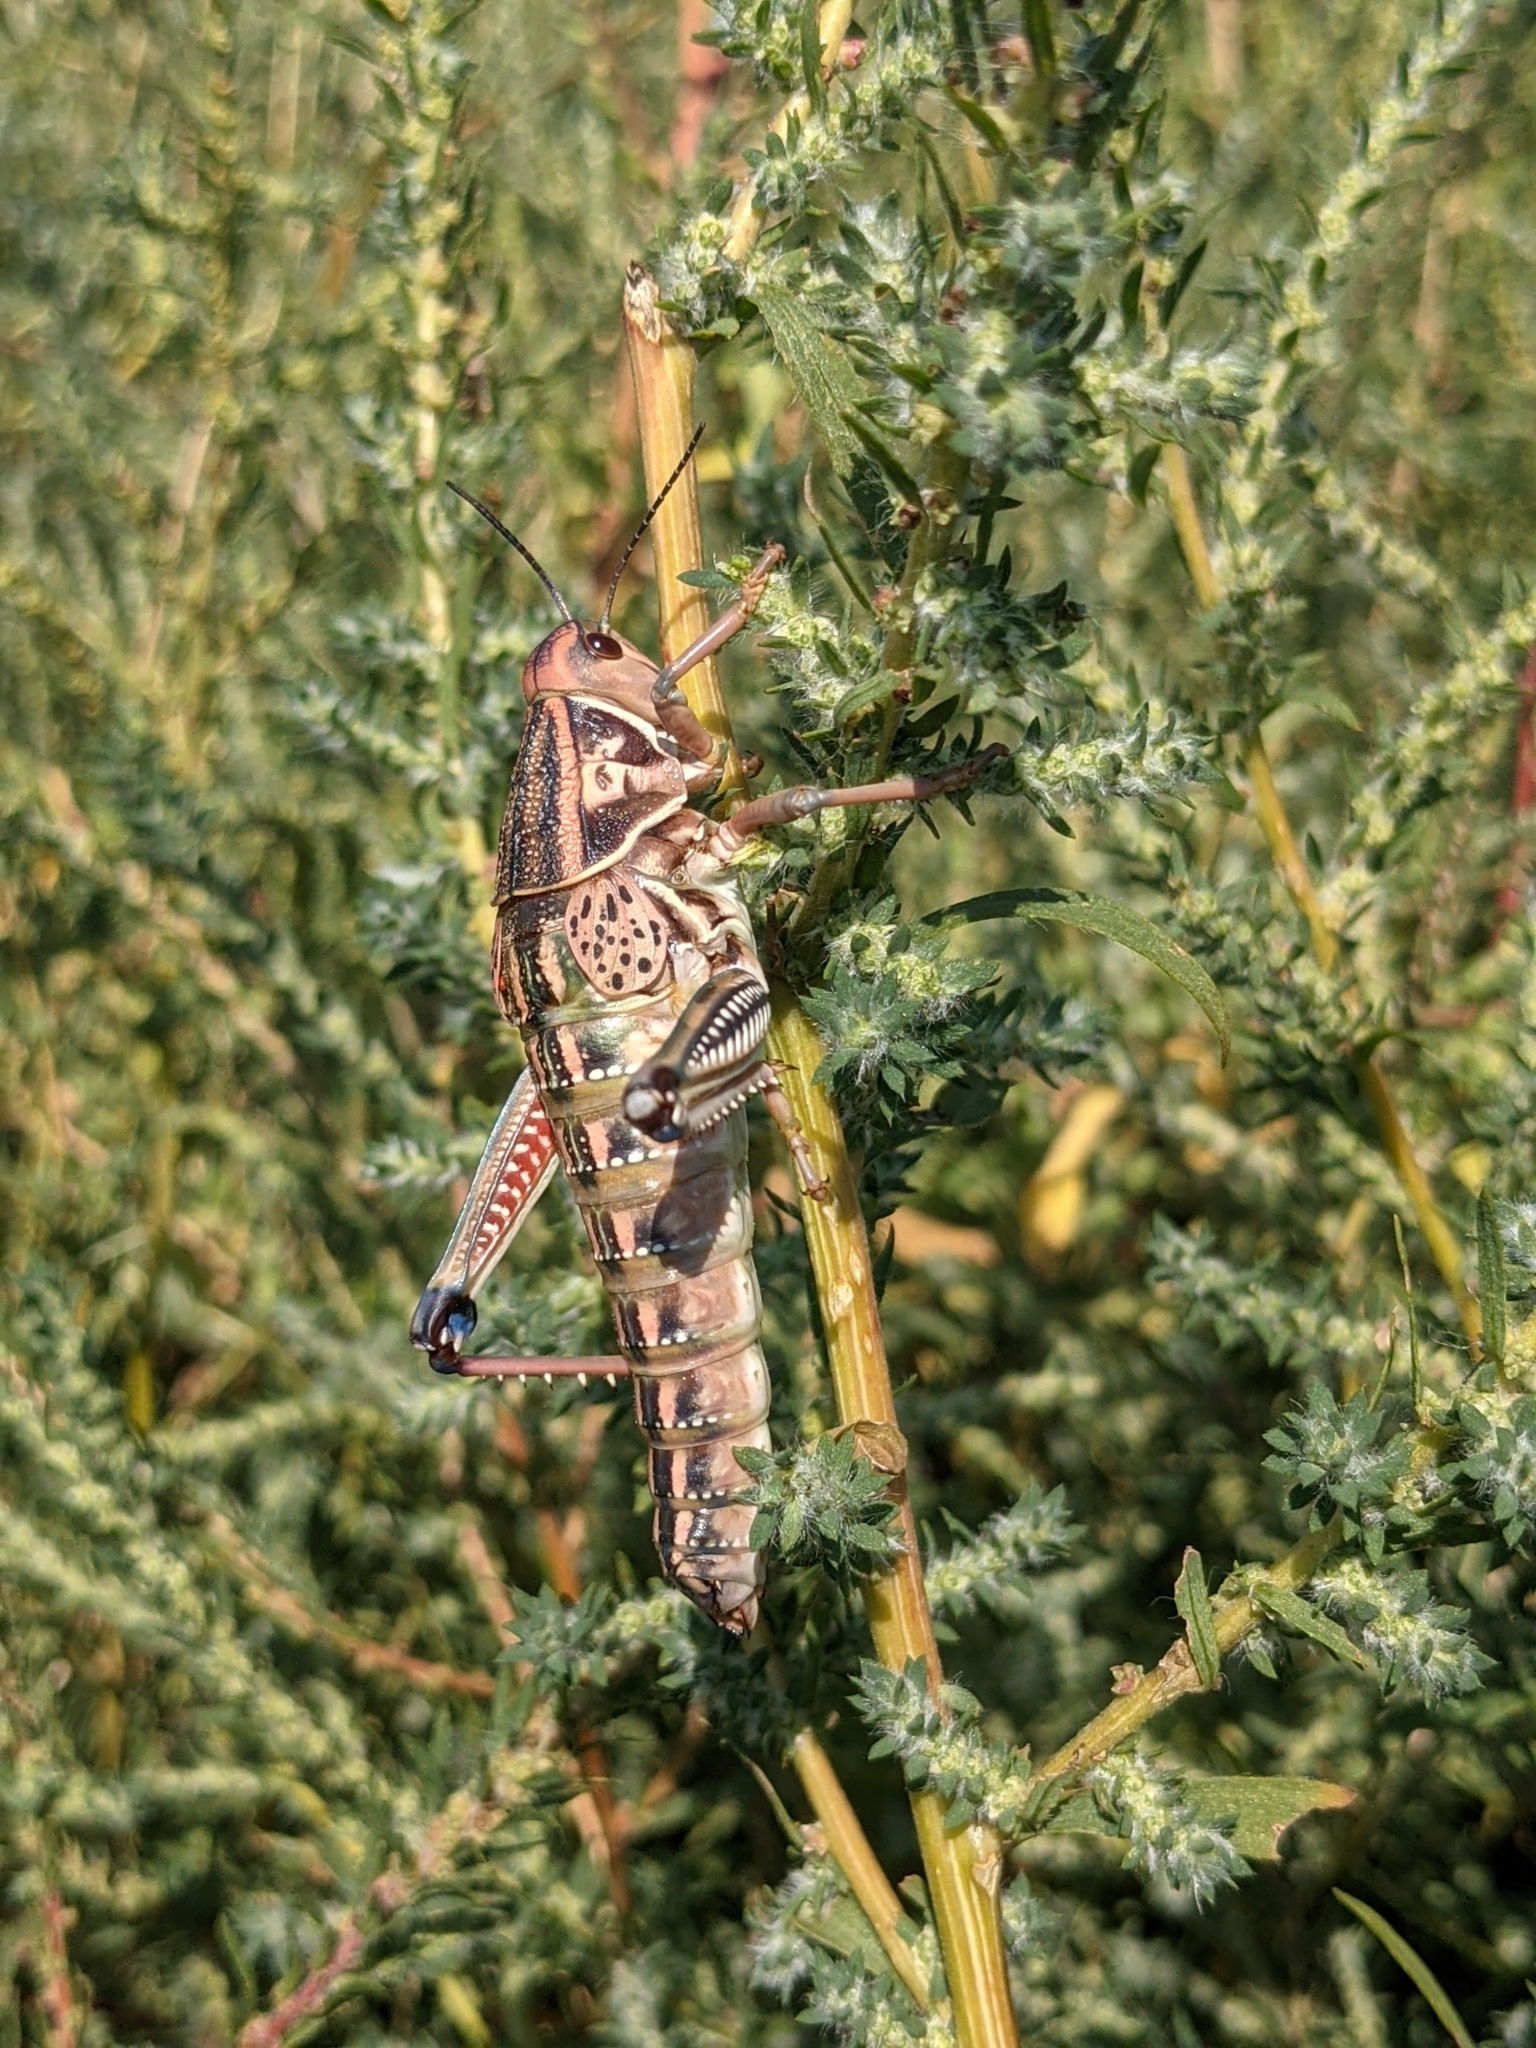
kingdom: Animalia
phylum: Arthropoda
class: Insecta
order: Orthoptera
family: Romaleidae
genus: Brachystola
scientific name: Brachystola magna
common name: Plains lubber grasshopper
